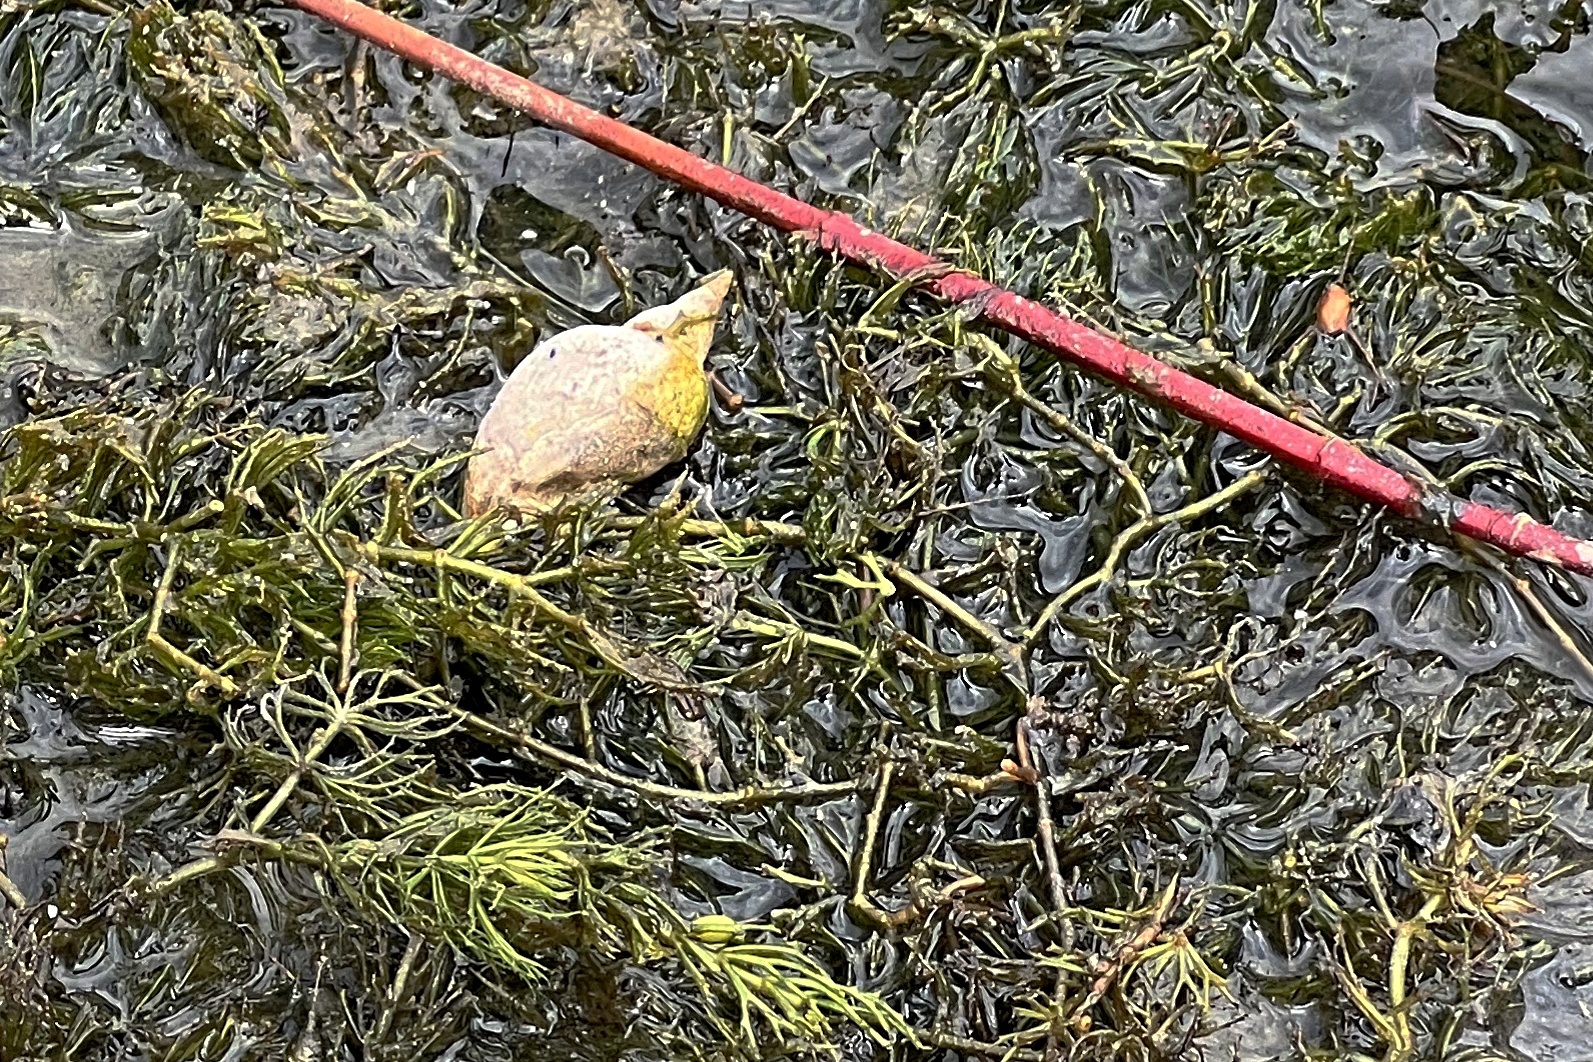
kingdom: Animalia
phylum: Mollusca
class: Gastropoda
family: Lymnaeidae
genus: Lymnaea
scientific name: Lymnaea stagnalis
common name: Great pond snail
